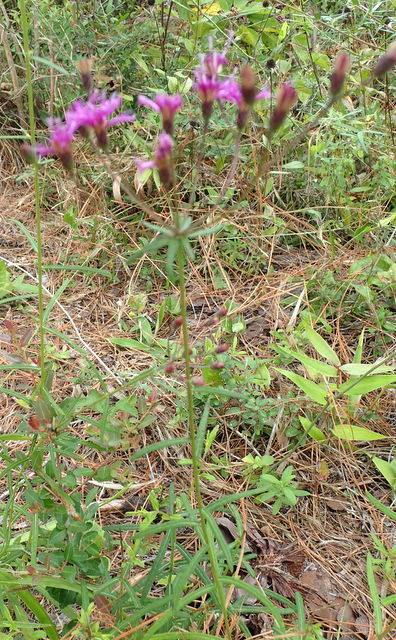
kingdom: Plantae
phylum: Tracheophyta
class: Magnoliopsida
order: Asterales
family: Asteraceae
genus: Vernonia
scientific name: Vernonia angustifolia
